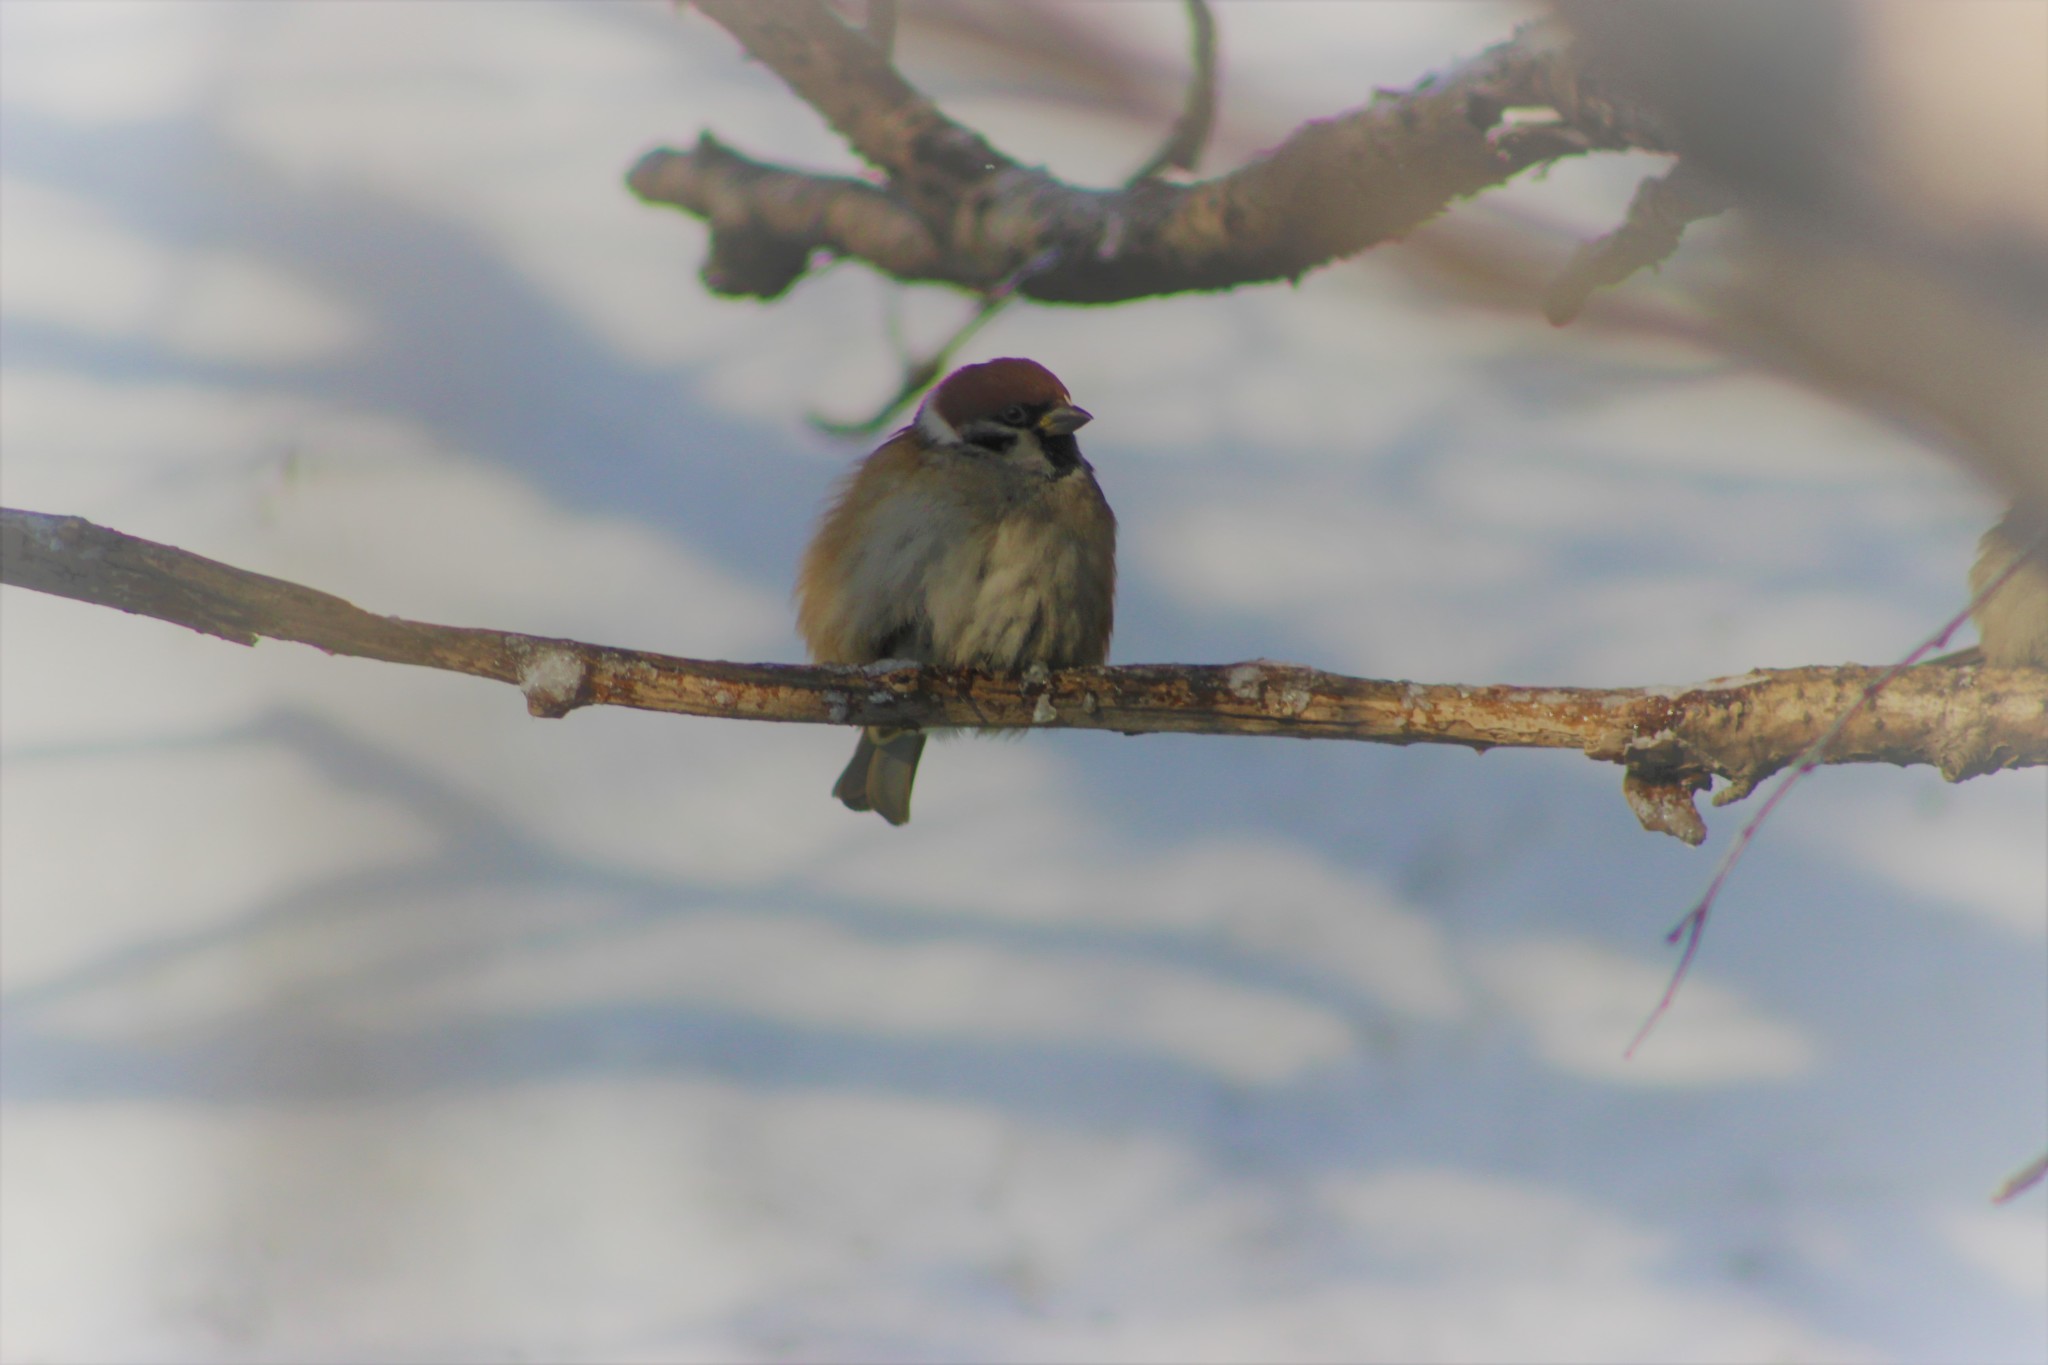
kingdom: Animalia
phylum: Chordata
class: Aves
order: Passeriformes
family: Passeridae
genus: Passer
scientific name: Passer montanus
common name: Eurasian tree sparrow
